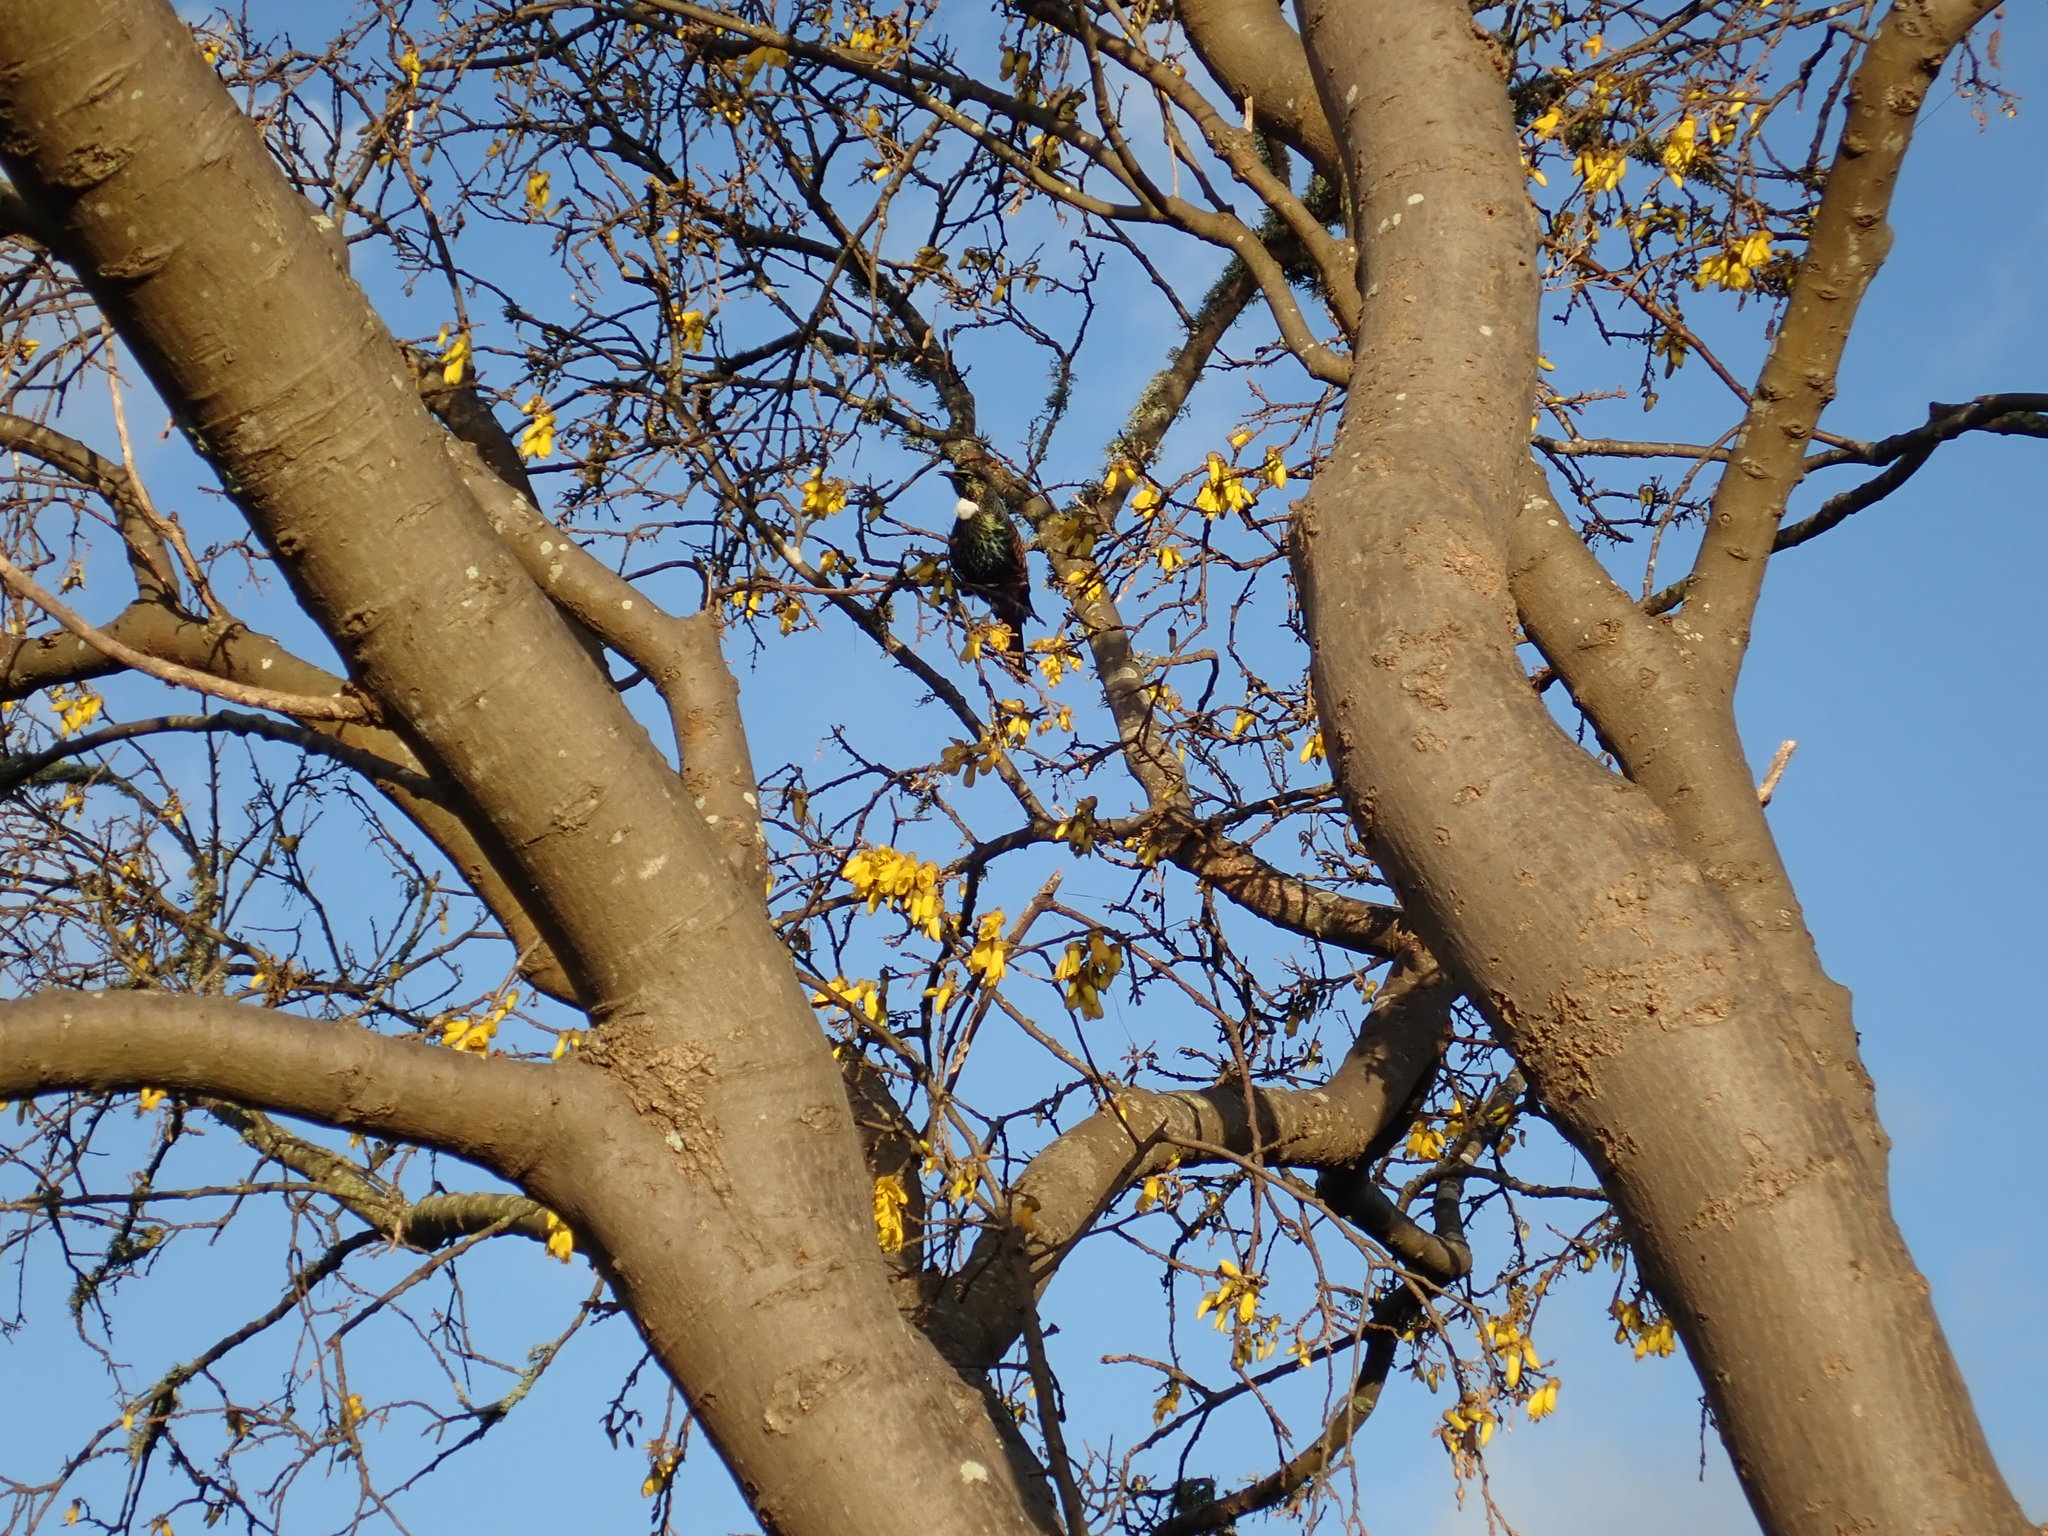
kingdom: Animalia
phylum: Chordata
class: Aves
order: Passeriformes
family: Meliphagidae
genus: Prosthemadera
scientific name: Prosthemadera novaeseelandiae
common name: Tui
